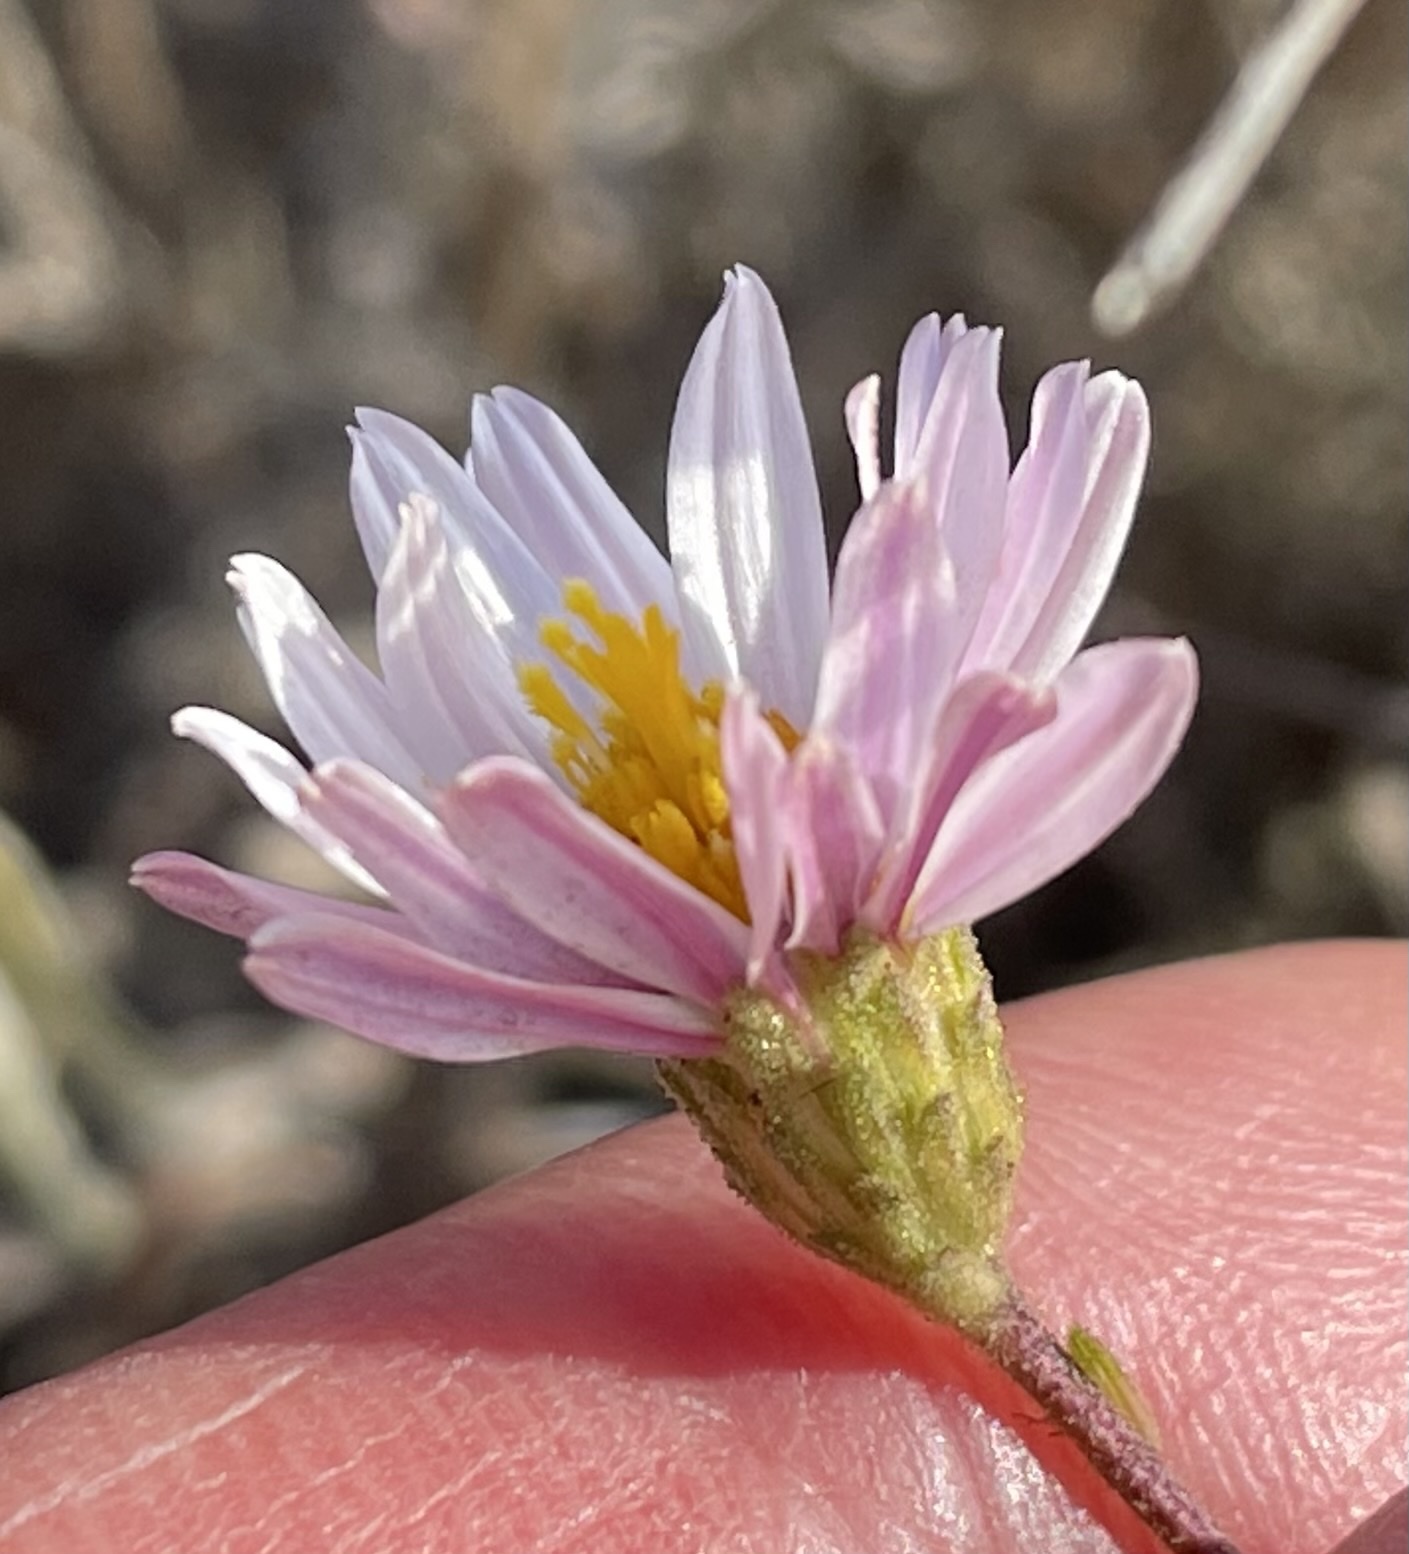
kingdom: Plantae
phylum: Tracheophyta
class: Magnoliopsida
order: Asterales
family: Asteraceae
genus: Corethrogyne
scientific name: Corethrogyne filaginifolia
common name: Sand-aster
